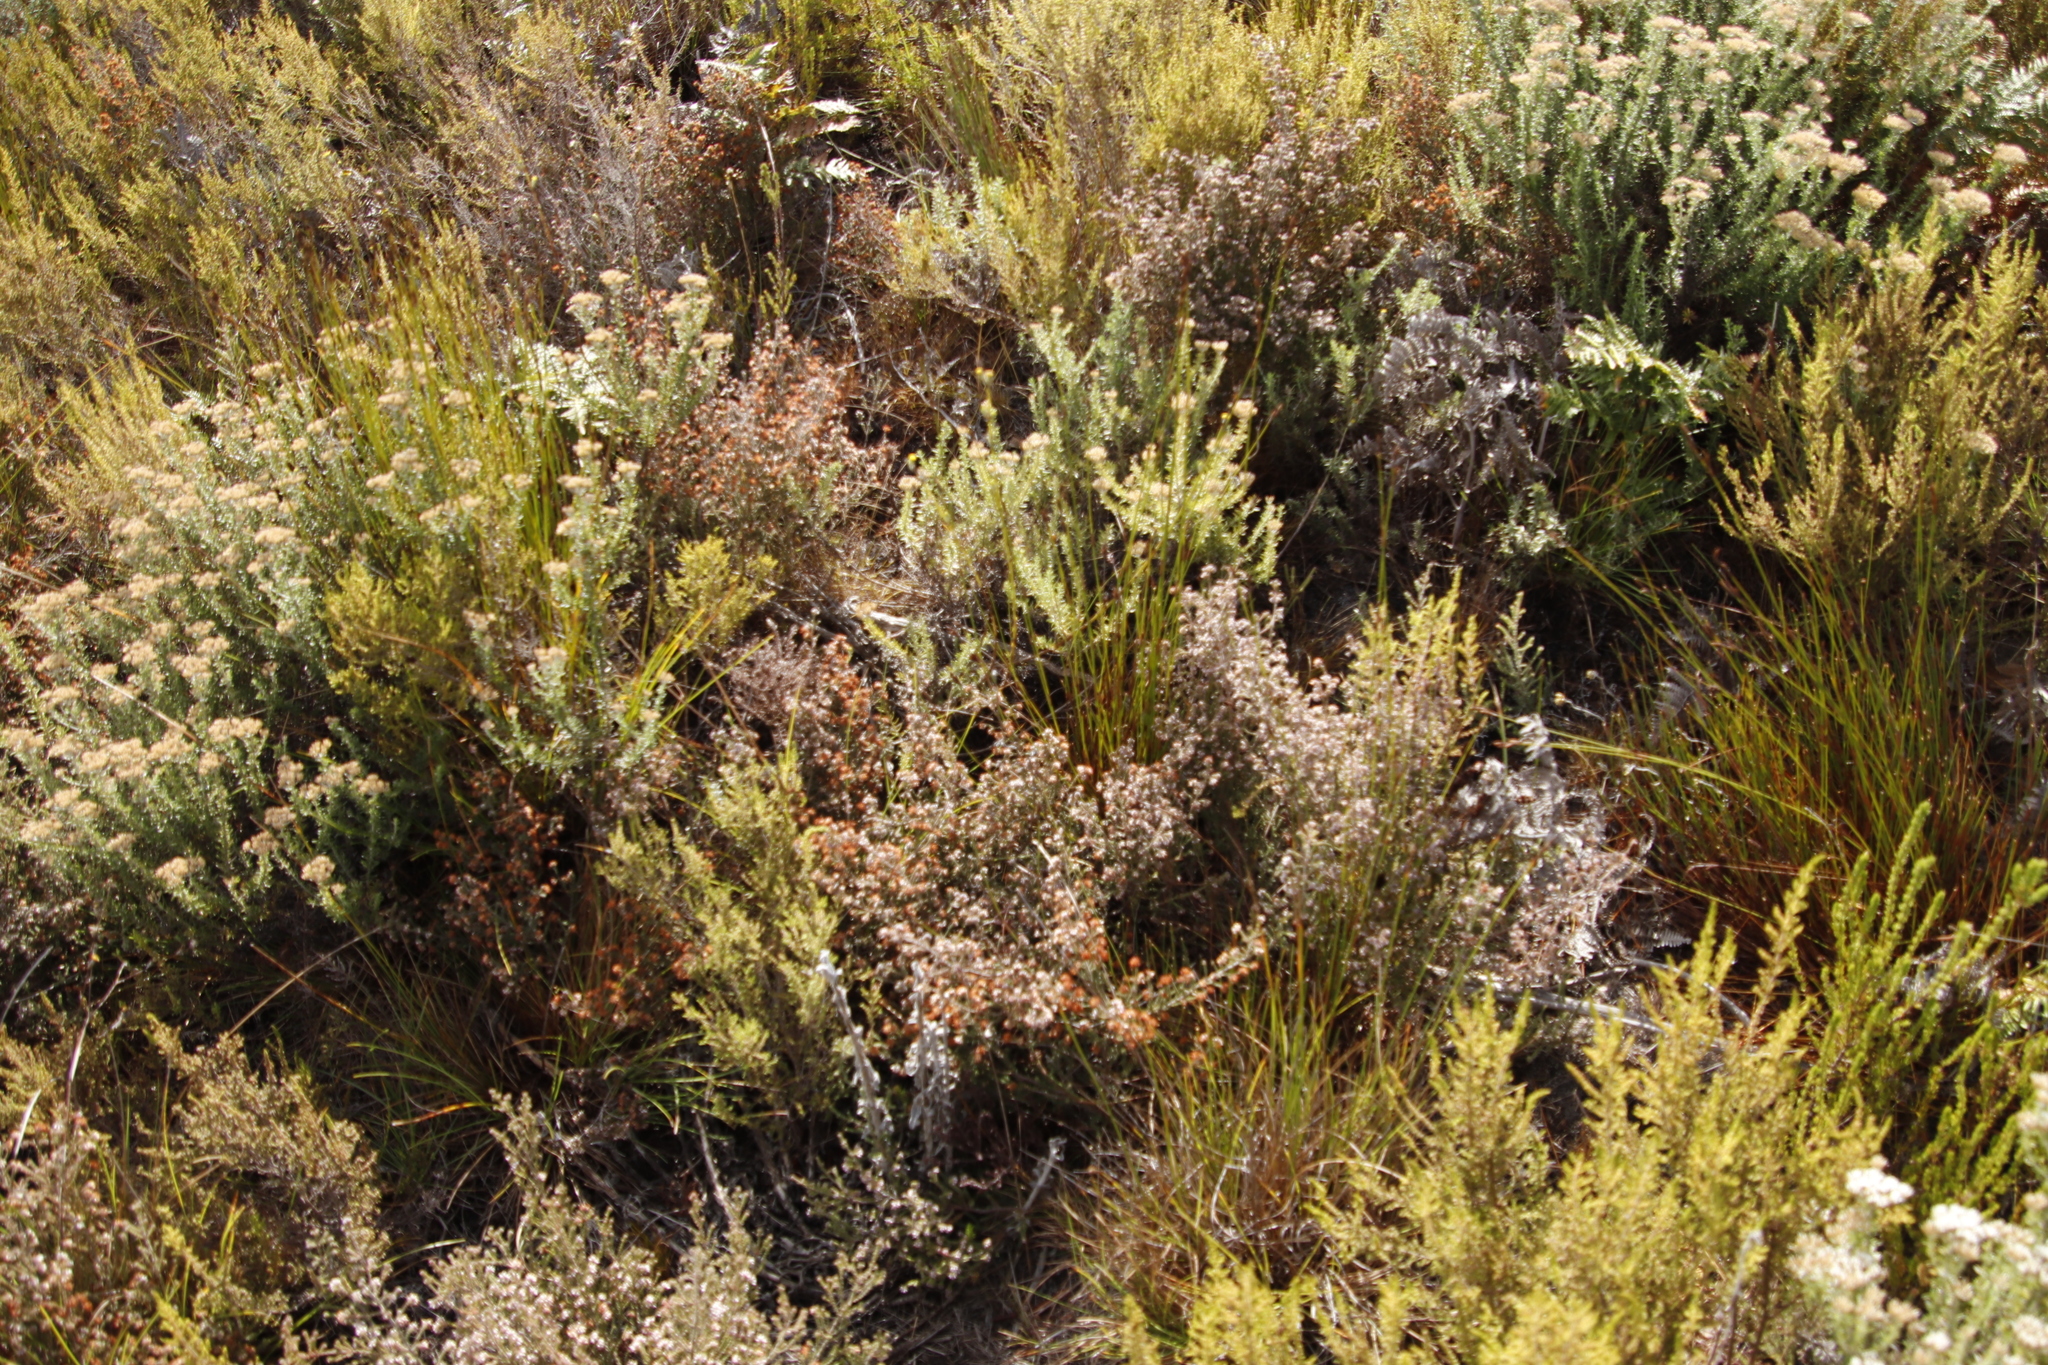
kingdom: Plantae
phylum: Tracheophyta
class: Magnoliopsida
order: Ericales
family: Ericaceae
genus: Erica
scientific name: Erica similis
